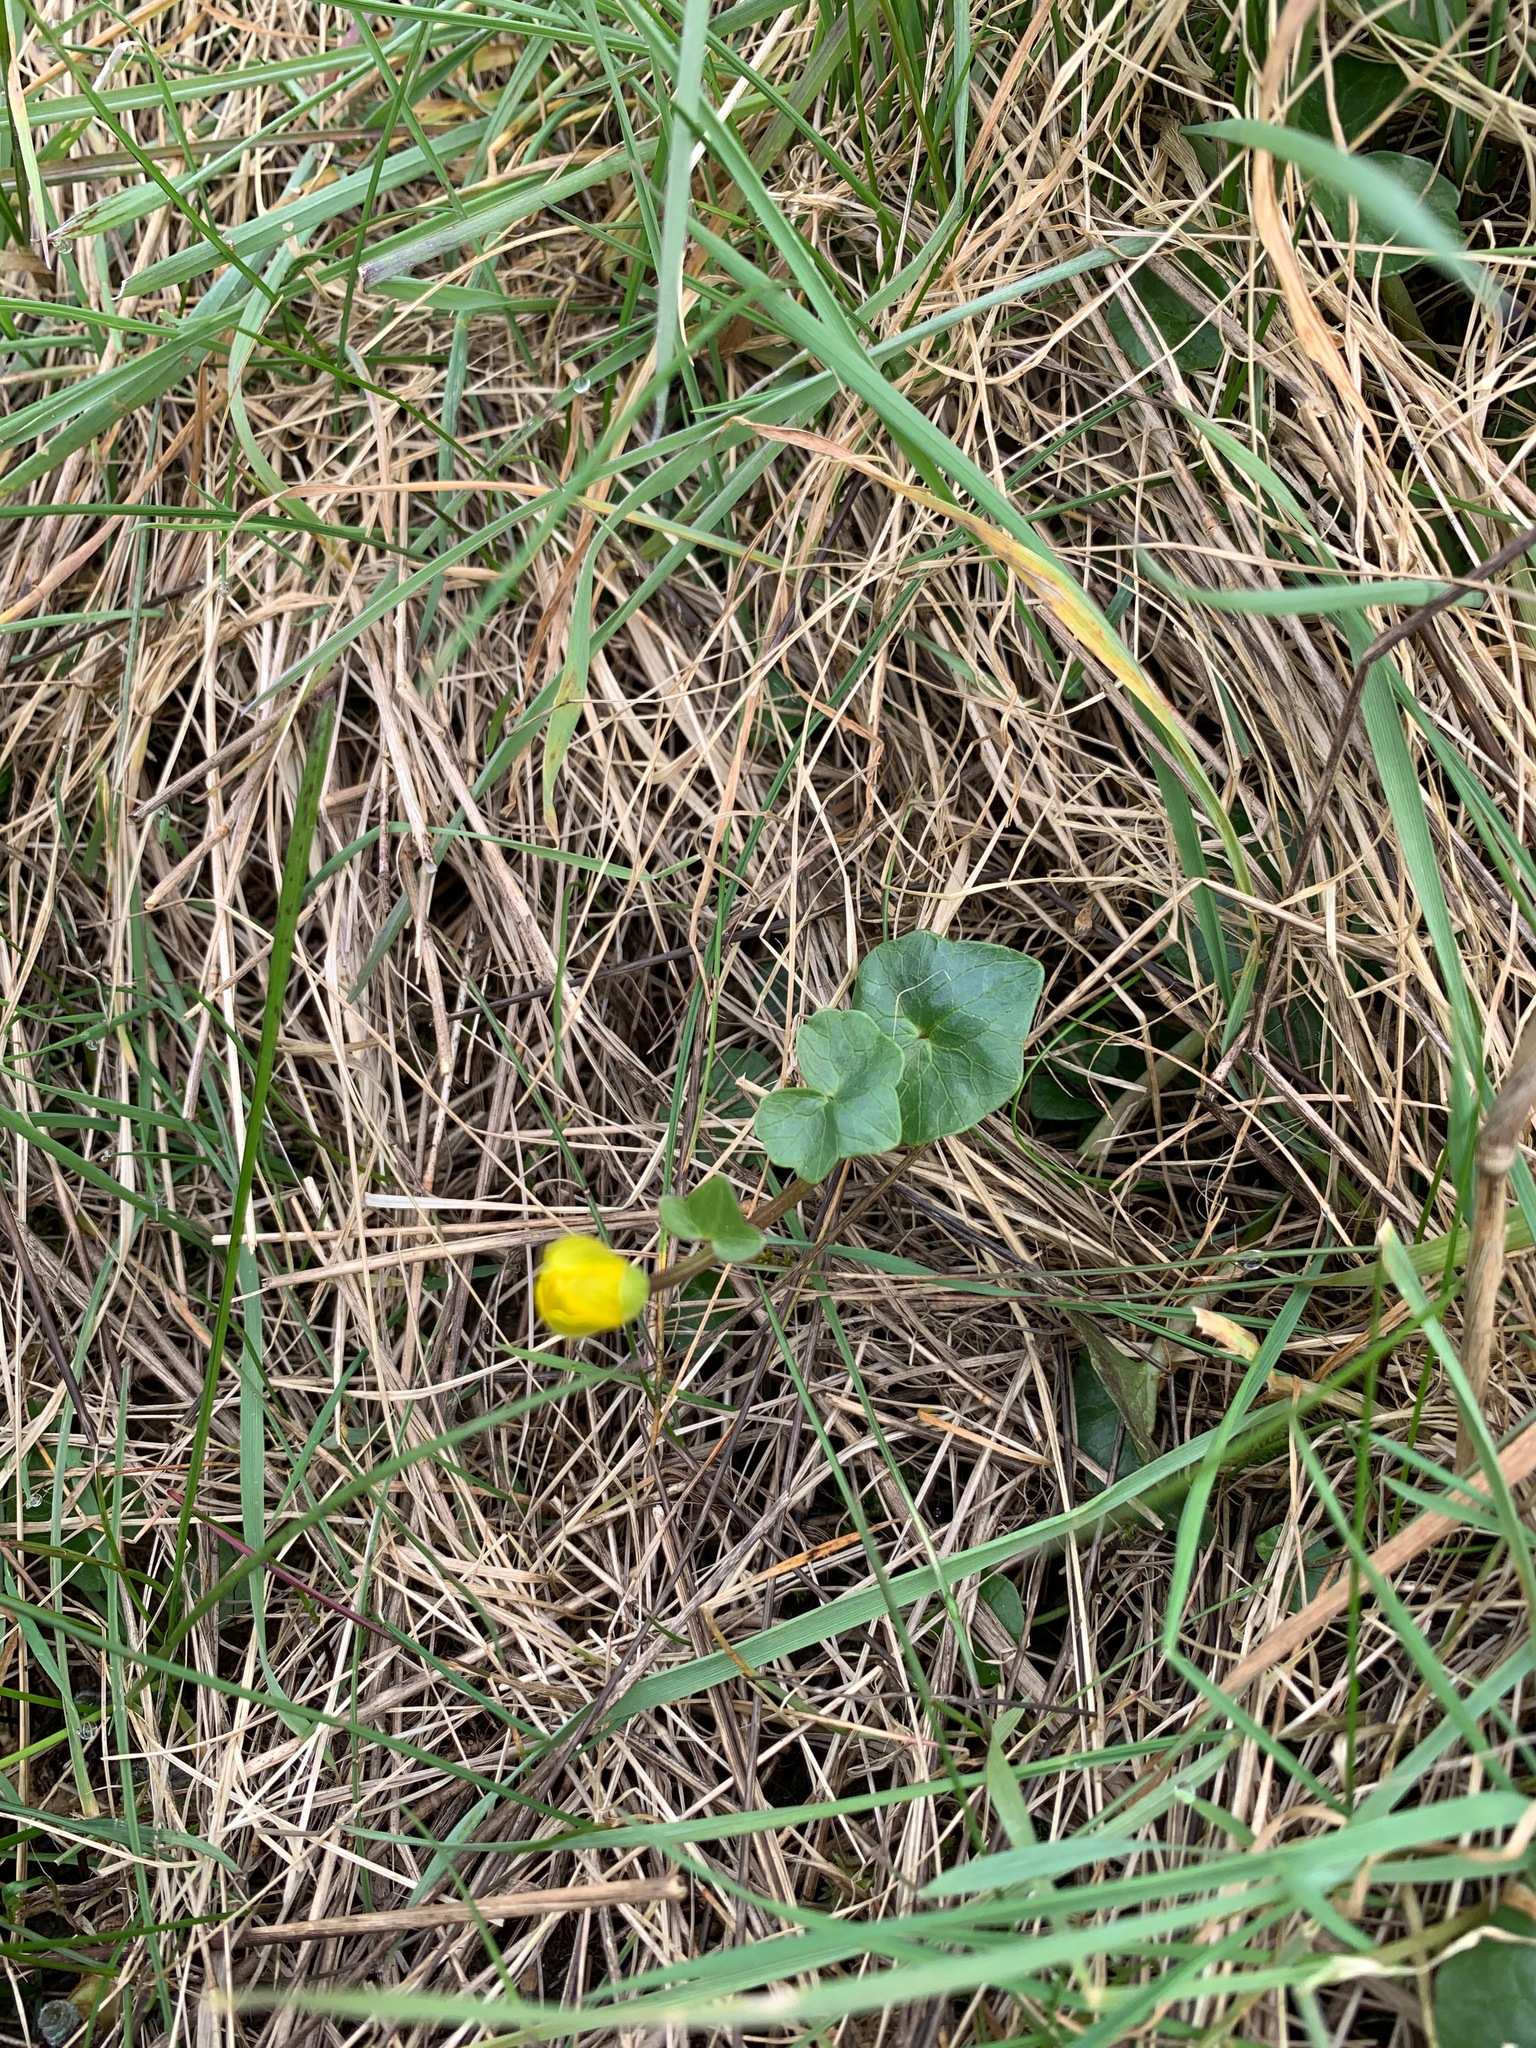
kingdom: Plantae
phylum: Tracheophyta
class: Magnoliopsida
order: Ranunculales
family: Ranunculaceae
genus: Ficaria
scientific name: Ficaria verna
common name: Lesser celandine
